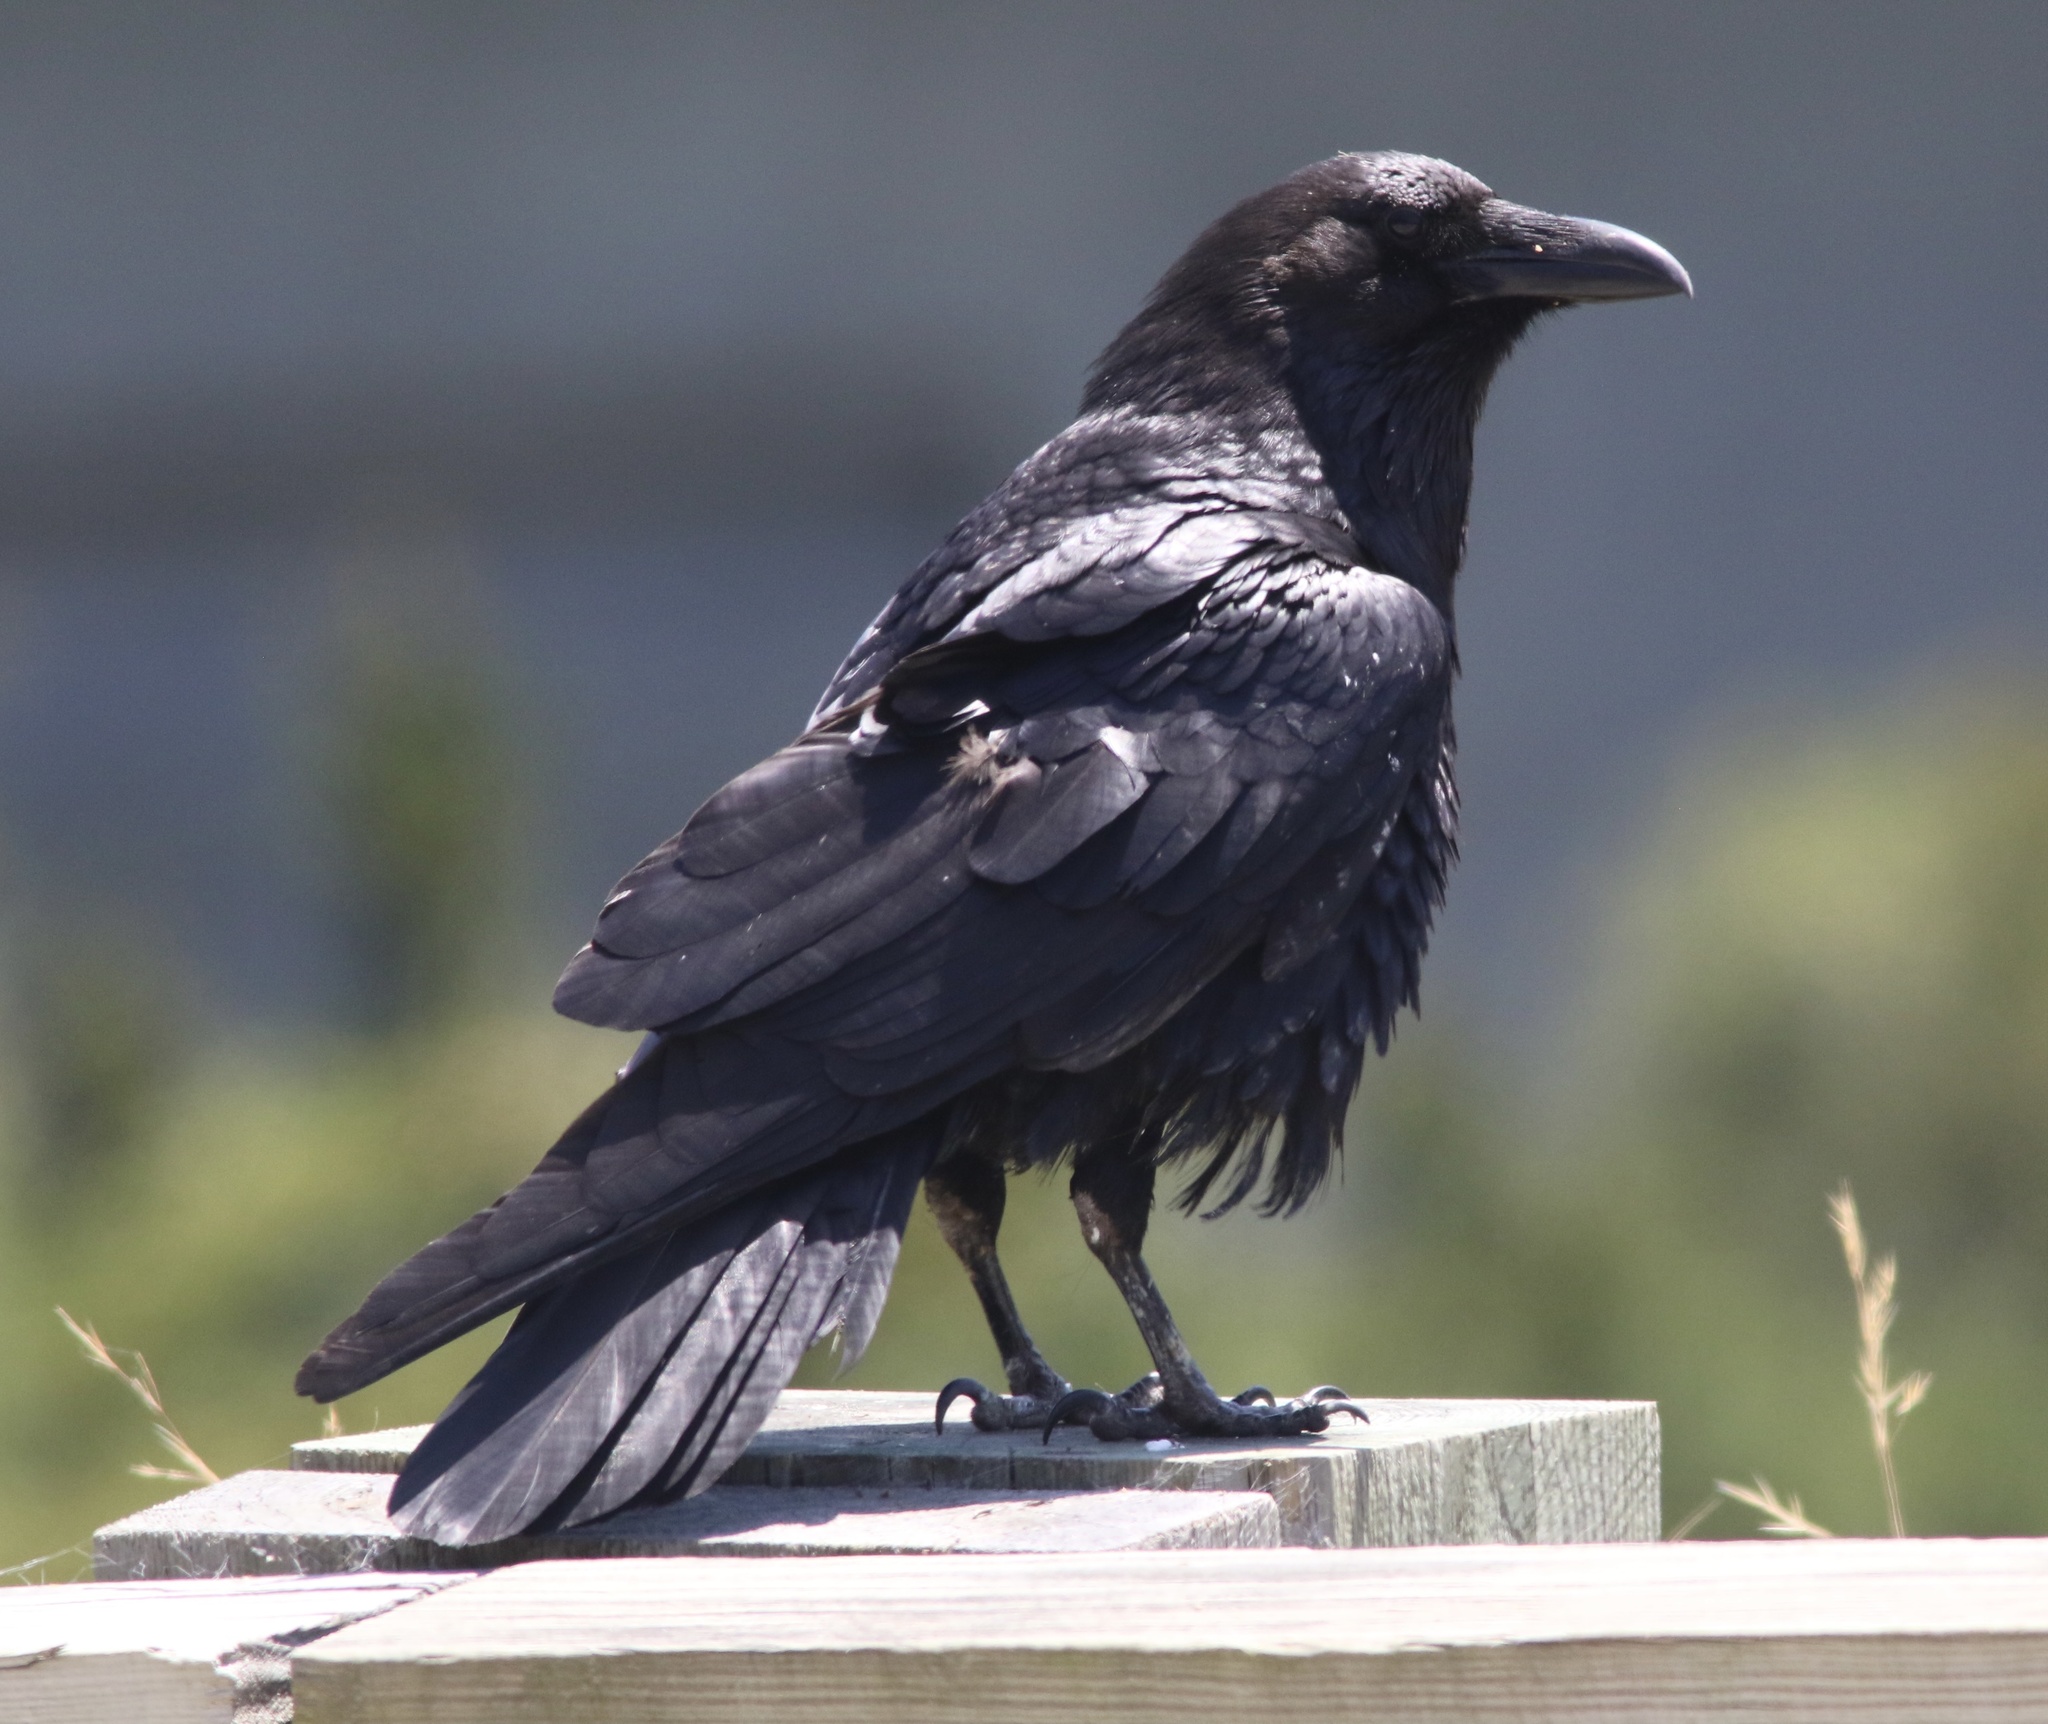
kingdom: Animalia
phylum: Chordata
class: Aves
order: Passeriformes
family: Corvidae
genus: Corvus
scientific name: Corvus corax
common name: Common raven
